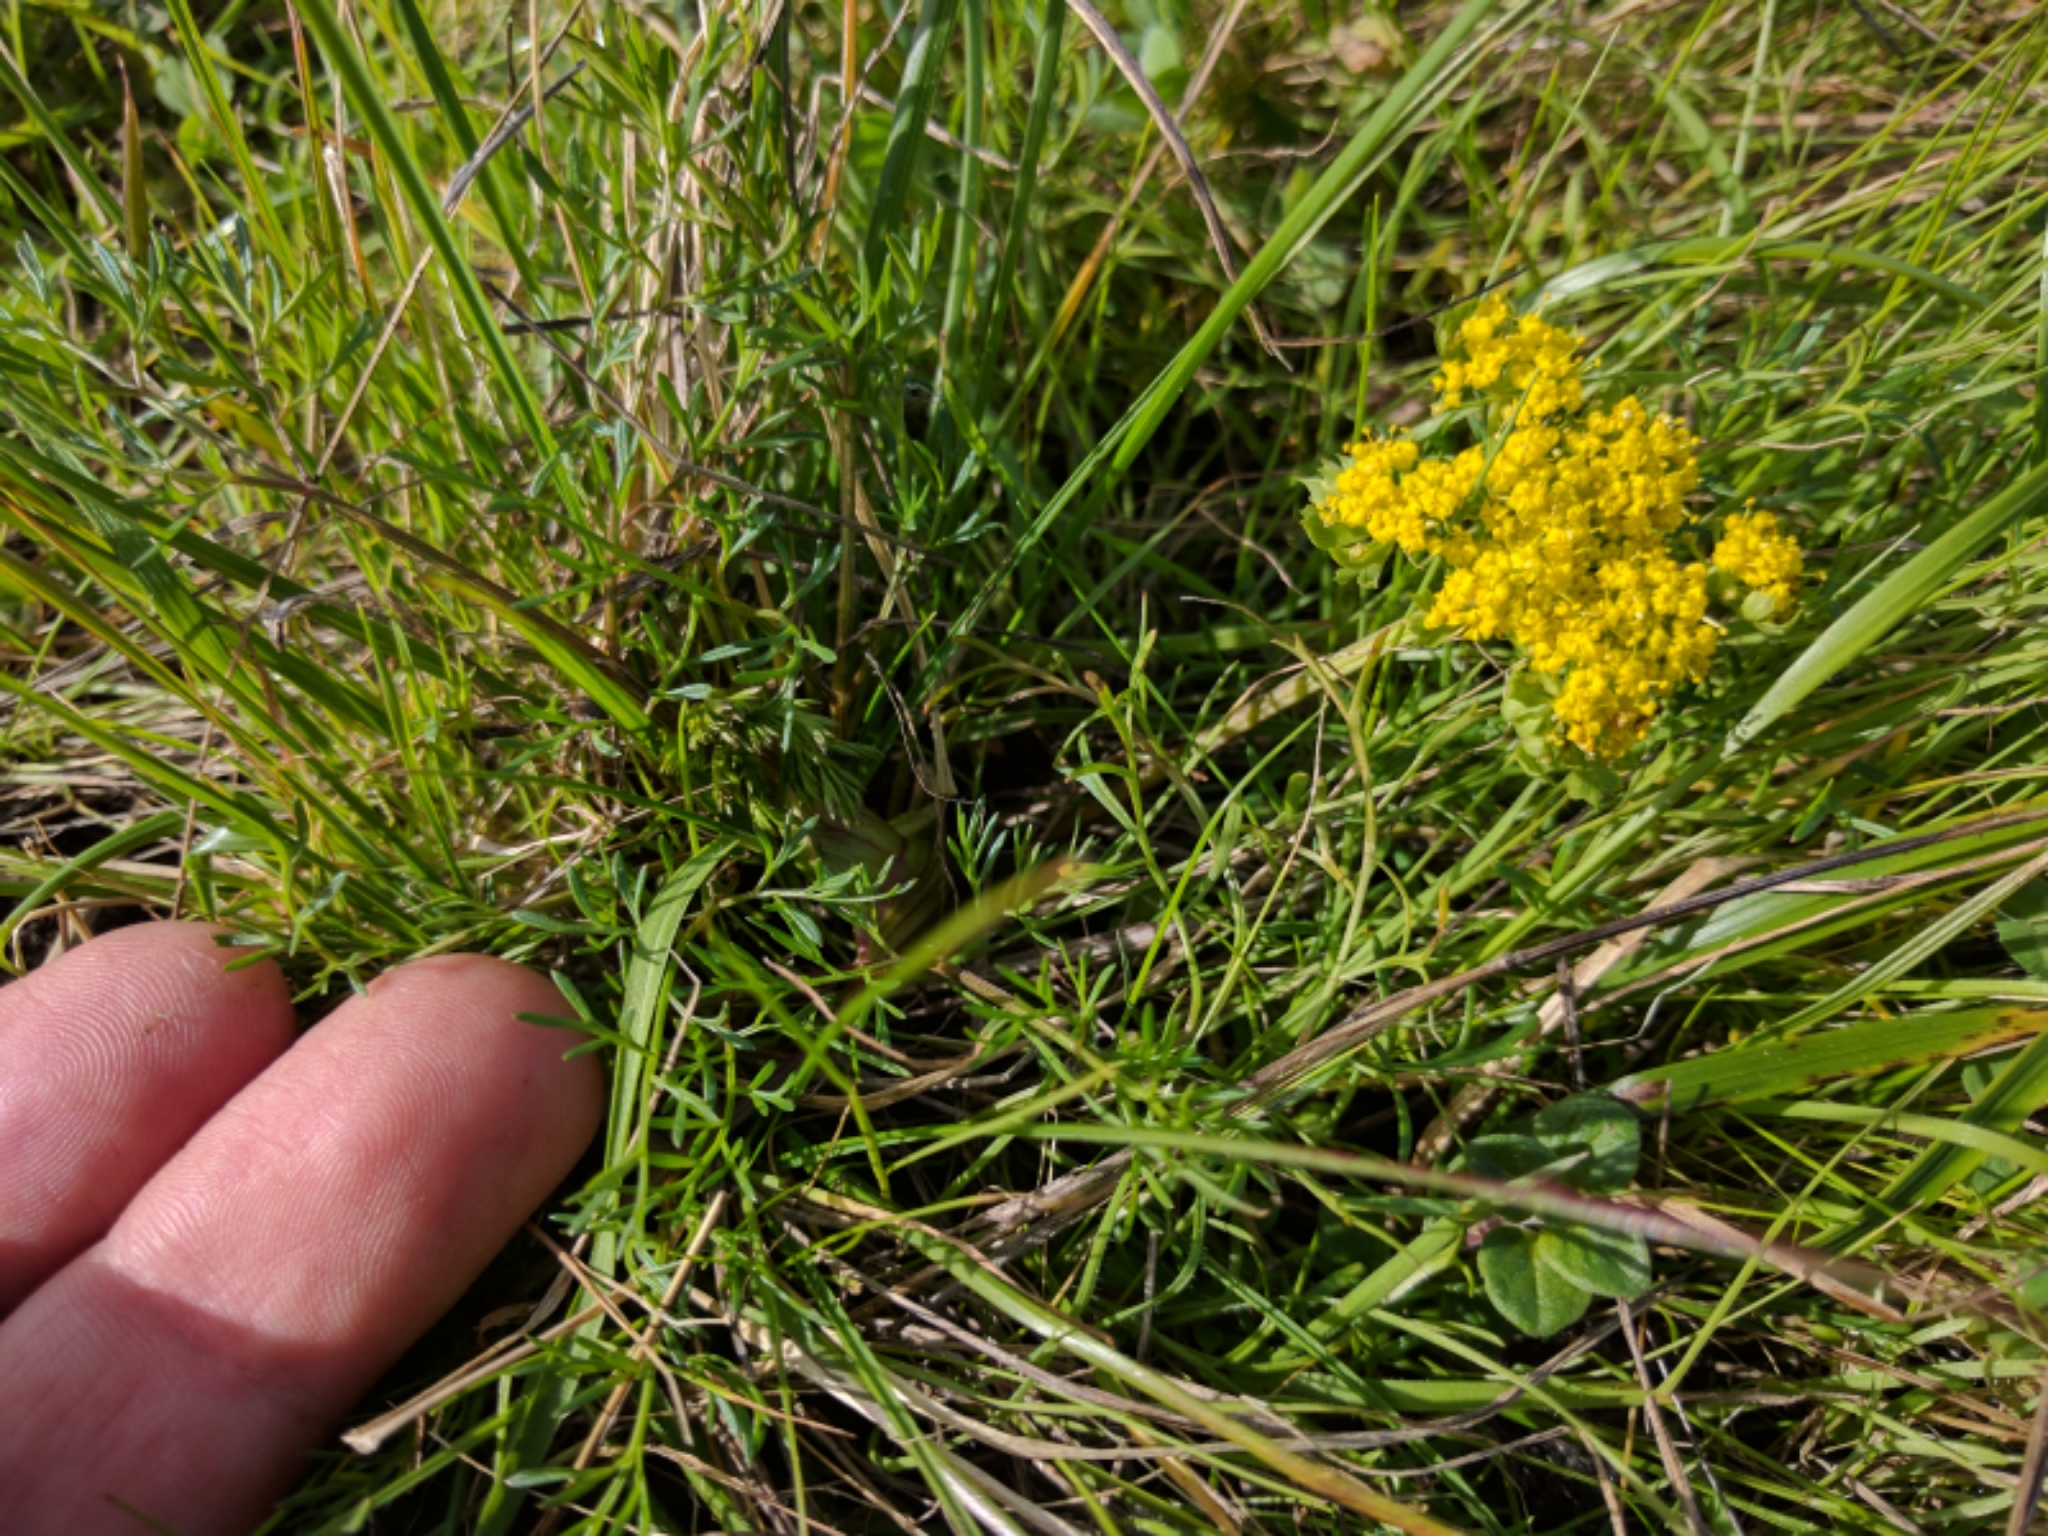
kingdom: Plantae
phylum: Tracheophyta
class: Magnoliopsida
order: Apiales
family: Apiaceae
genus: Lomatium
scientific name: Lomatium utriculatum
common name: Fine-leaf desert-parsley
